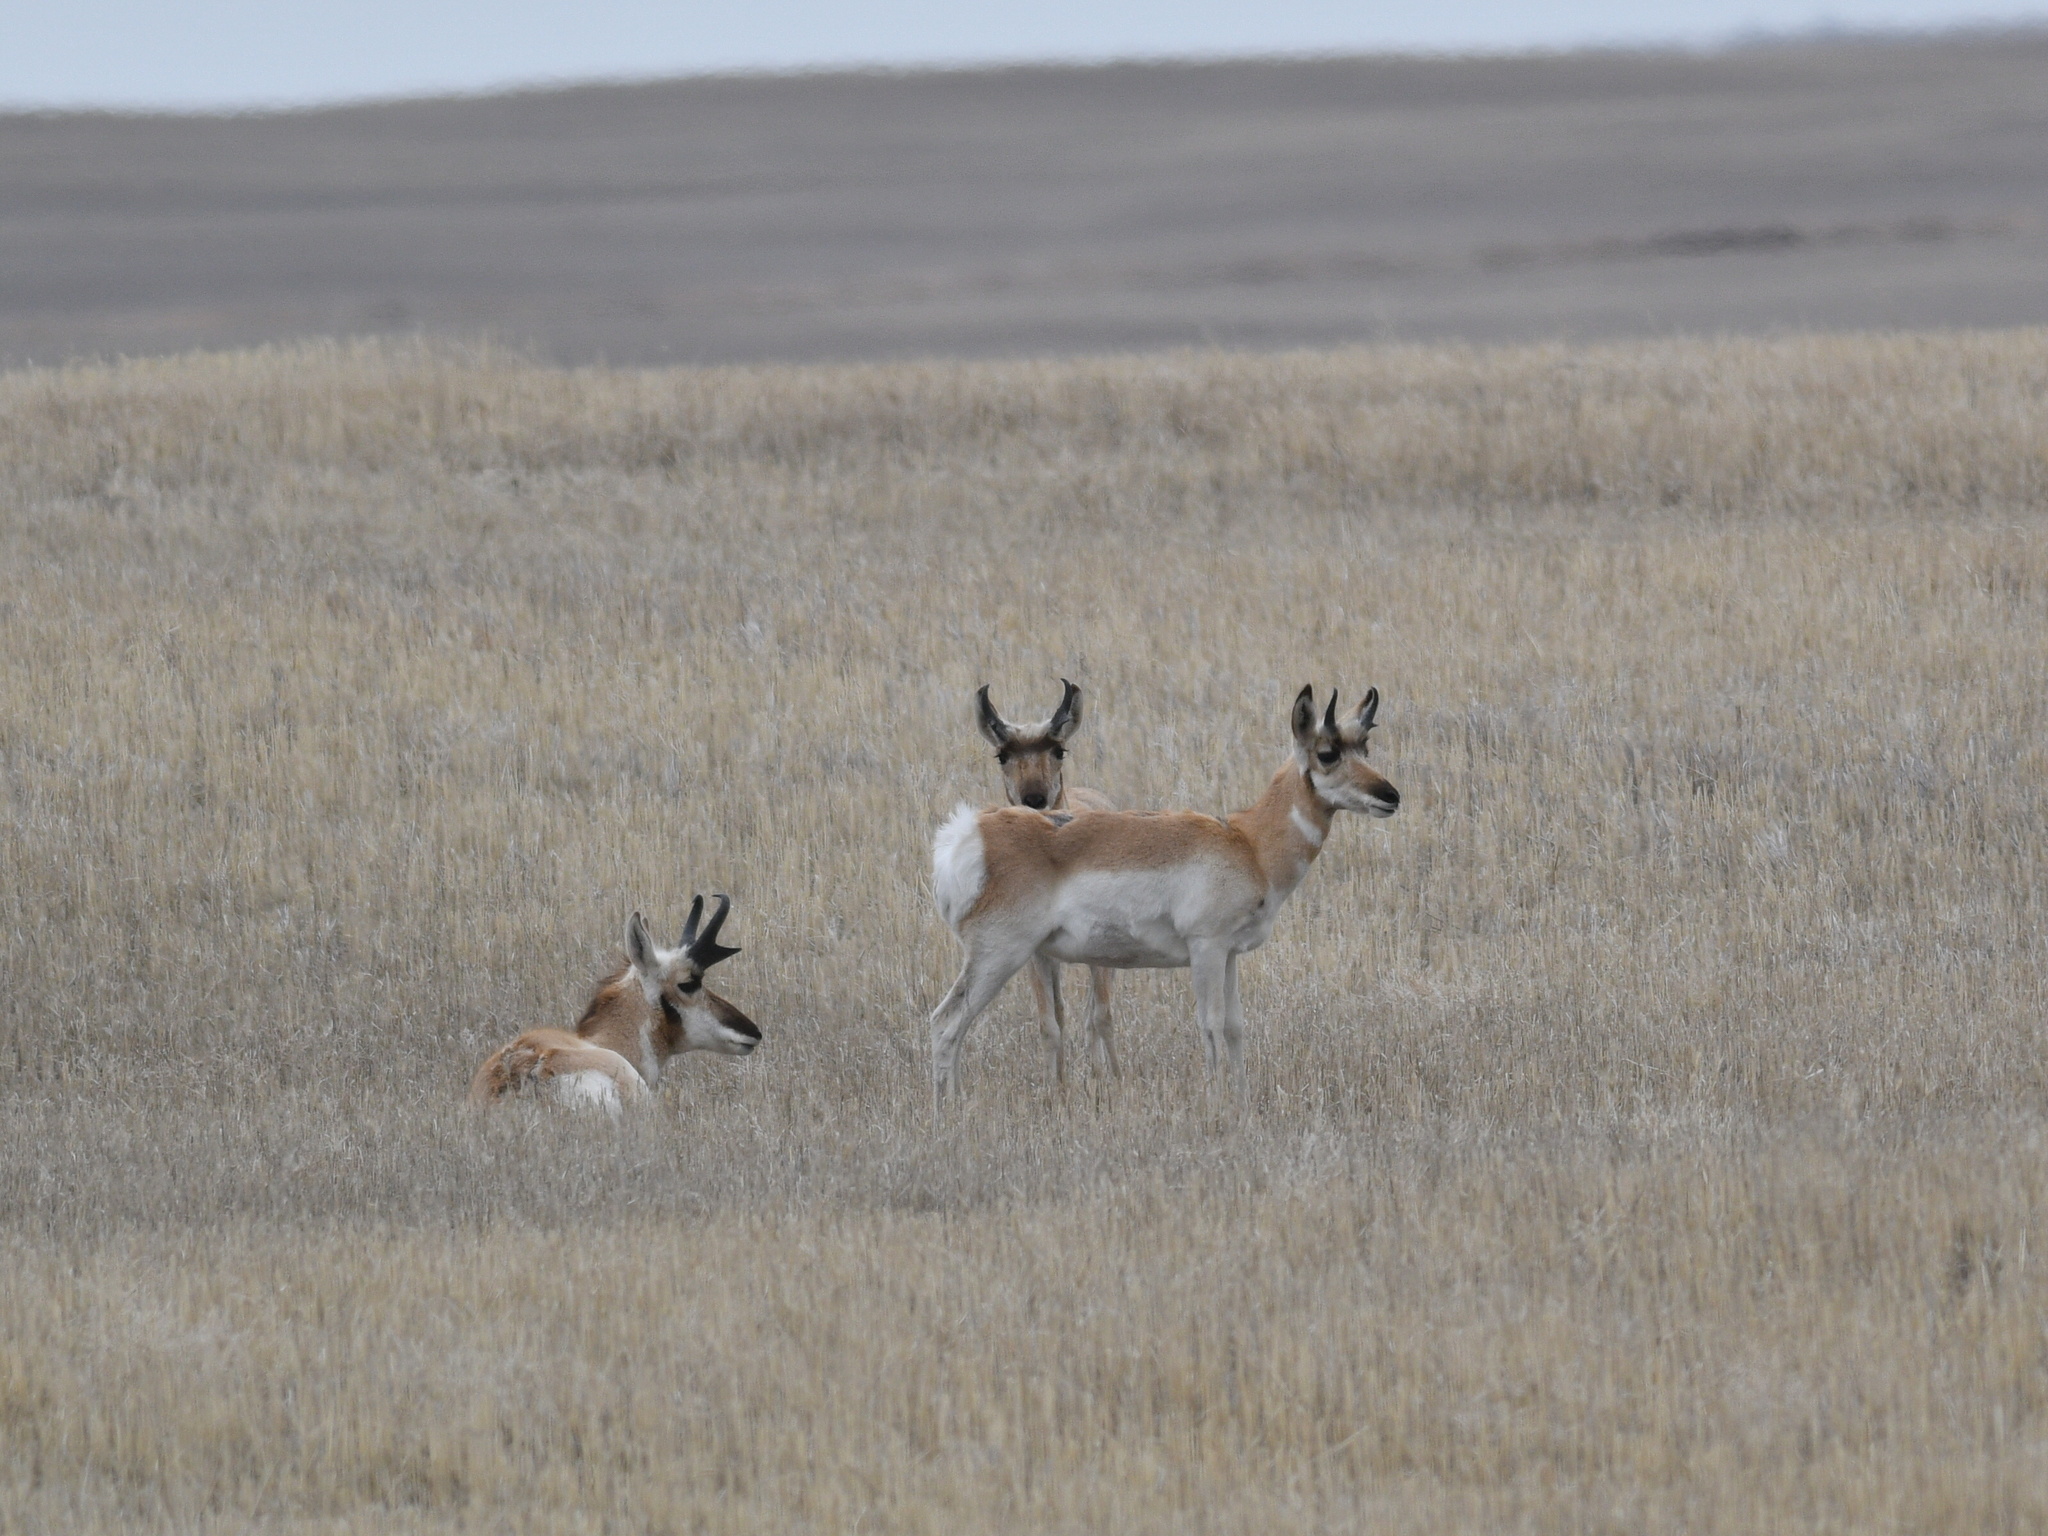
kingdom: Animalia
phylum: Chordata
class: Mammalia
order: Artiodactyla
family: Antilocapridae
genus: Antilocapra
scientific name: Antilocapra americana
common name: Pronghorn
